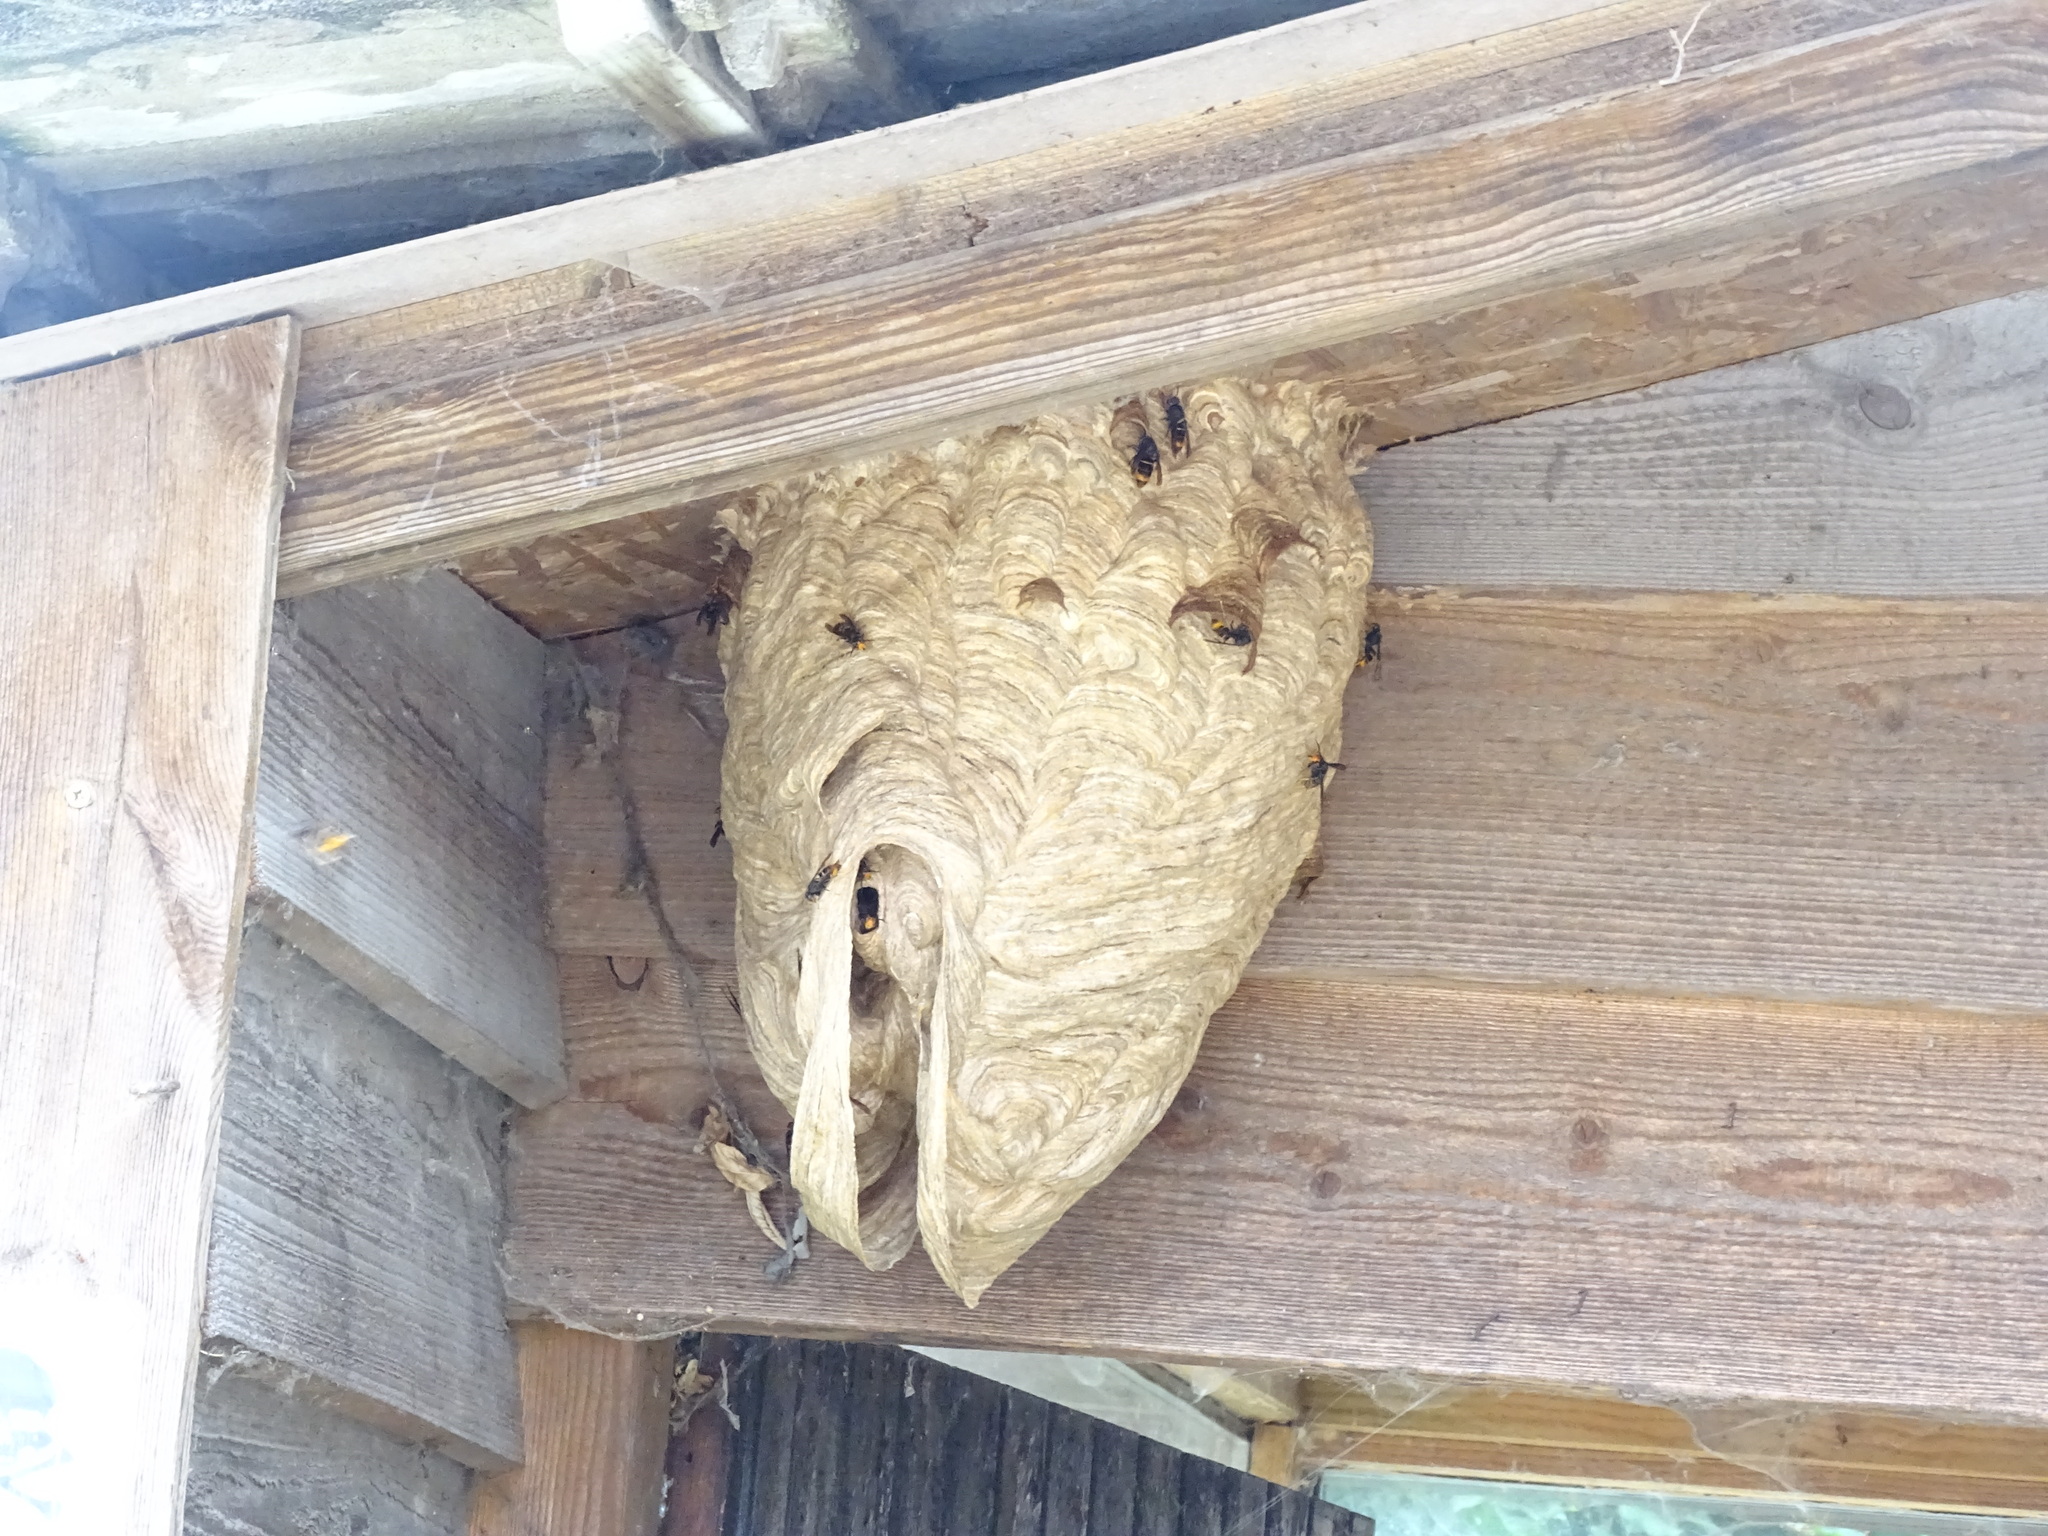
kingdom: Animalia
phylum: Arthropoda
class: Insecta
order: Hymenoptera
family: Vespidae
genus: Vespa
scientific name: Vespa velutina
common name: Asian hornet
